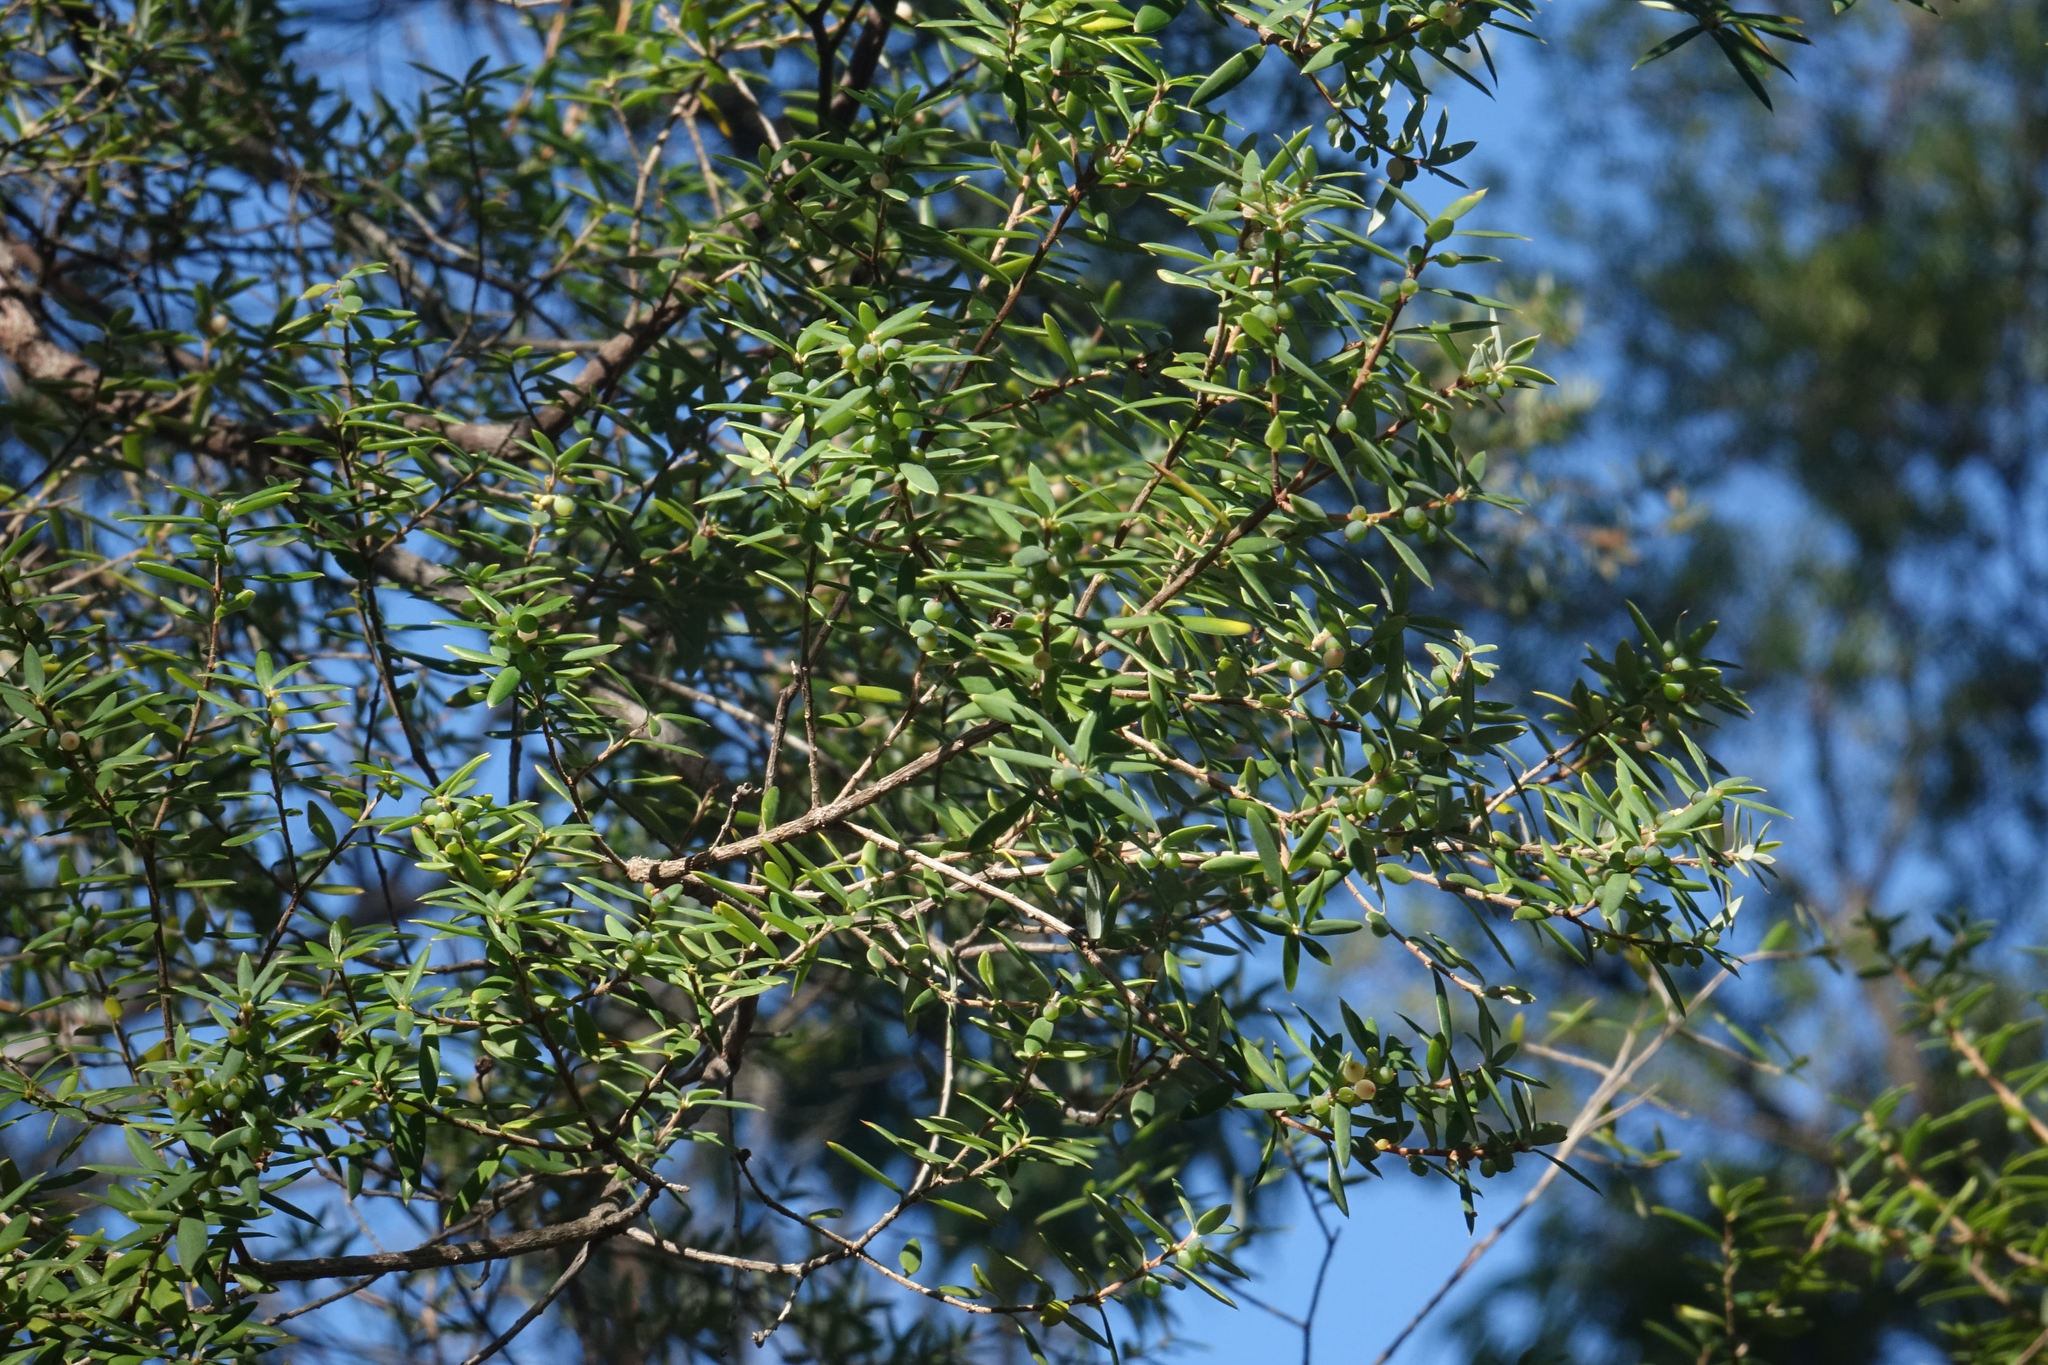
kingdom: Plantae
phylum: Tracheophyta
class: Magnoliopsida
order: Santalales
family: Loranthaceae
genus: Muellerina
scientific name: Muellerina celastroides
